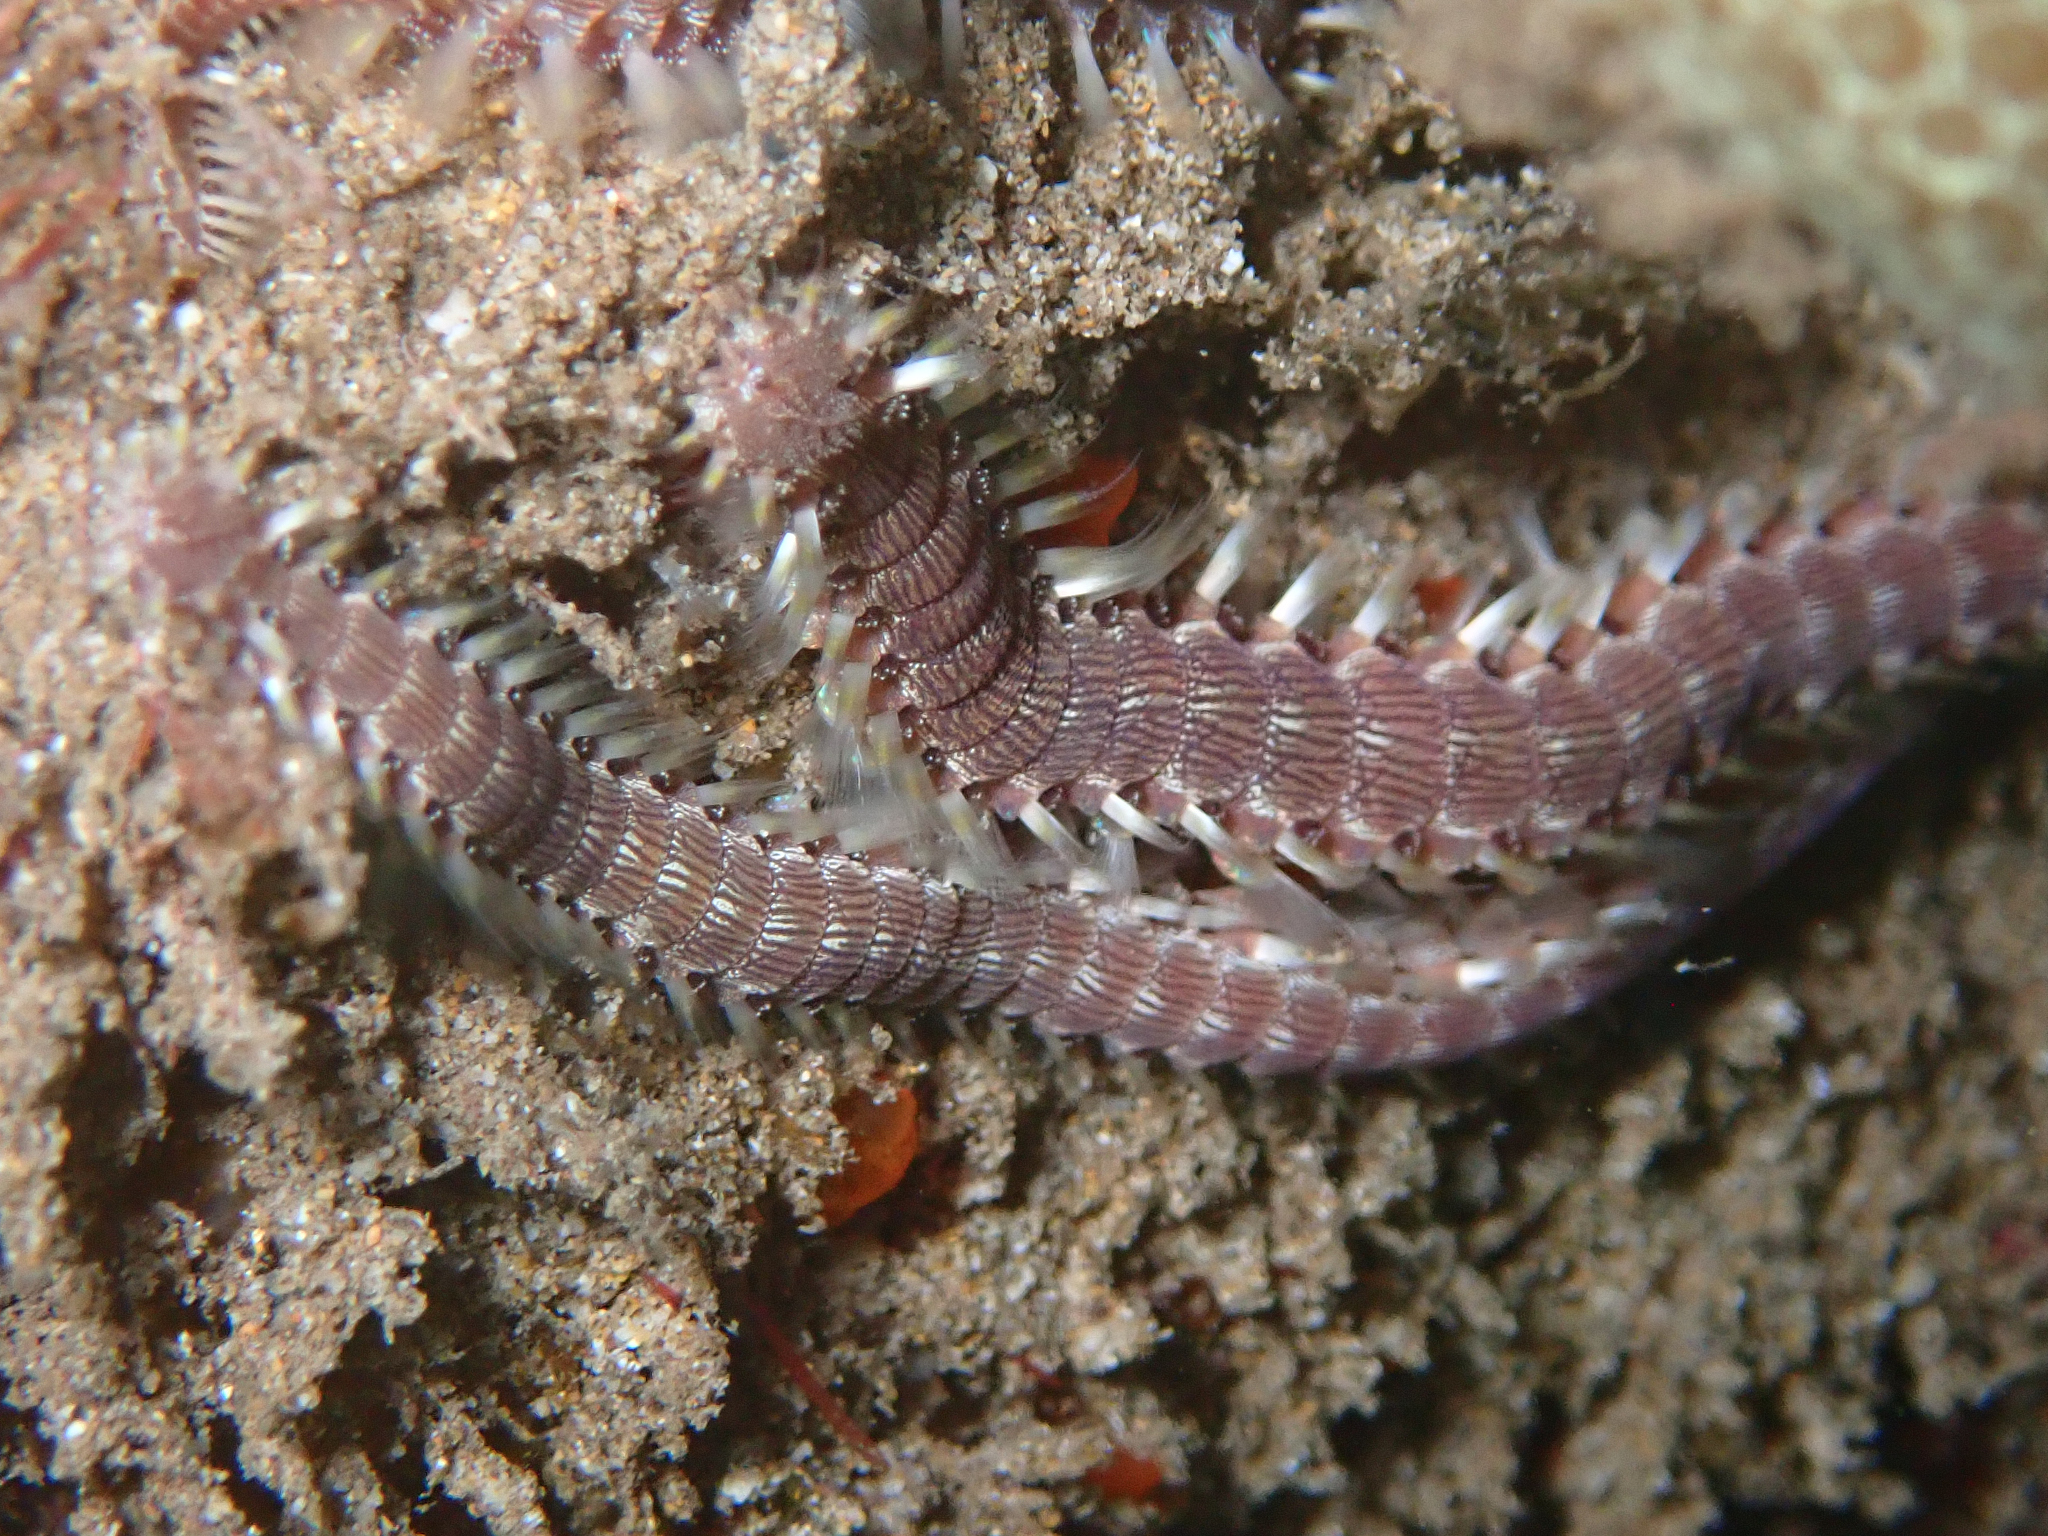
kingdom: Animalia
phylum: Annelida
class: Polychaeta
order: Amphinomida
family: Amphinomidae
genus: Pherecardia
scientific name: Pherecardia striata
